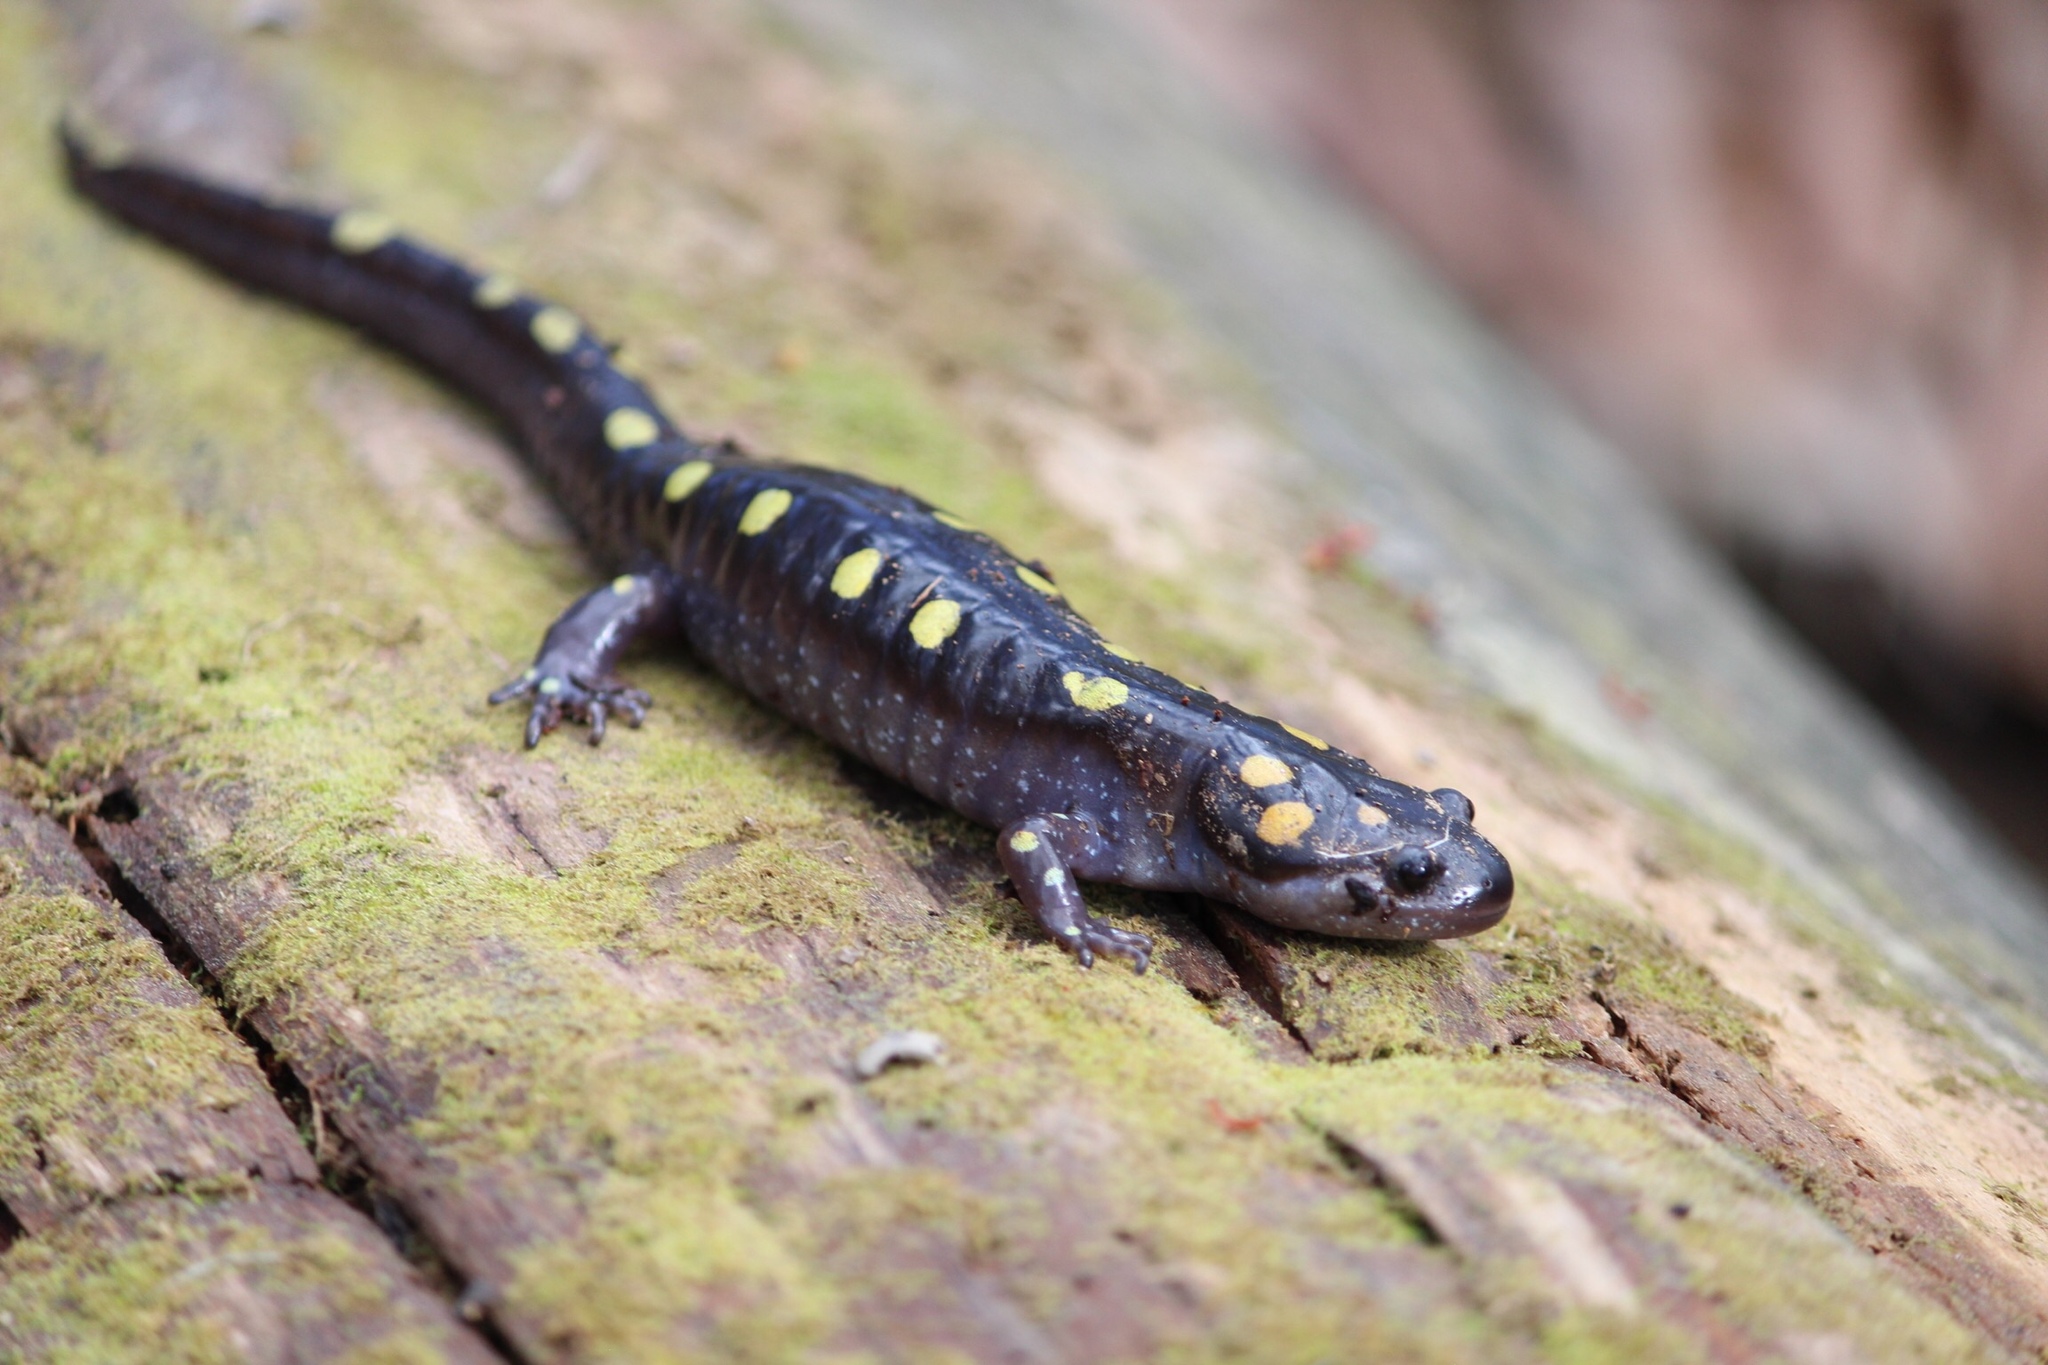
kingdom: Animalia
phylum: Chordata
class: Amphibia
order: Caudata
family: Ambystomatidae
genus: Ambystoma
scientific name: Ambystoma maculatum
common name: Spotted salamander
